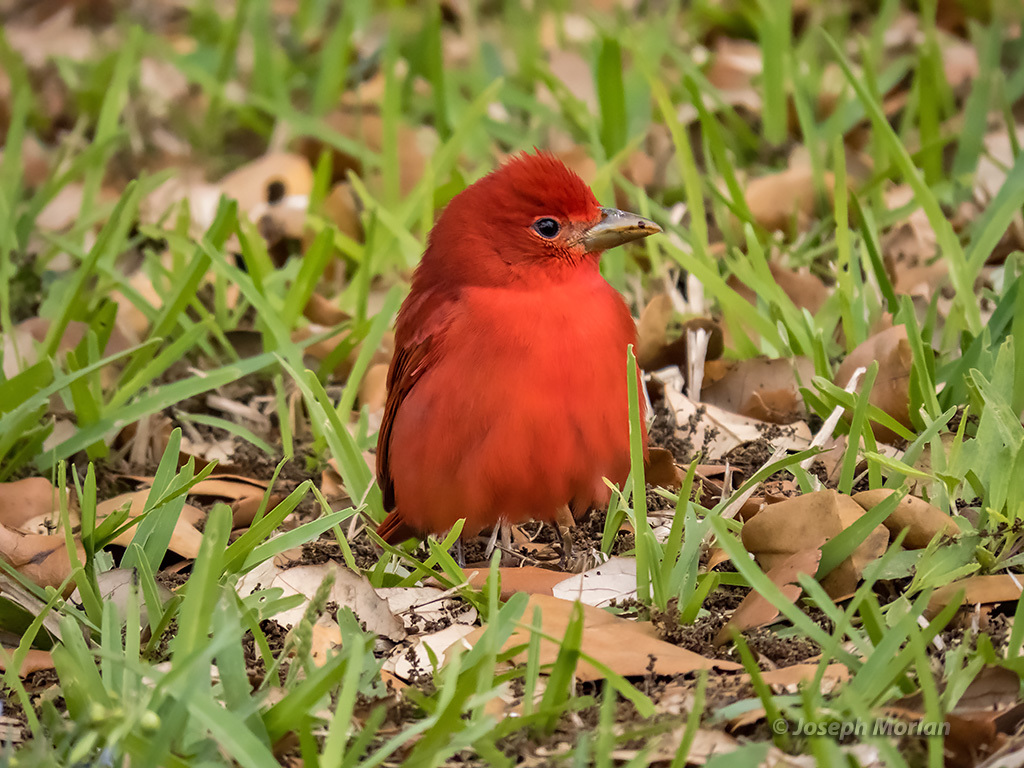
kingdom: Animalia
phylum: Chordata
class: Aves
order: Passeriformes
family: Cardinalidae
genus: Piranga
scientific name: Piranga rubra
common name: Summer tanager
